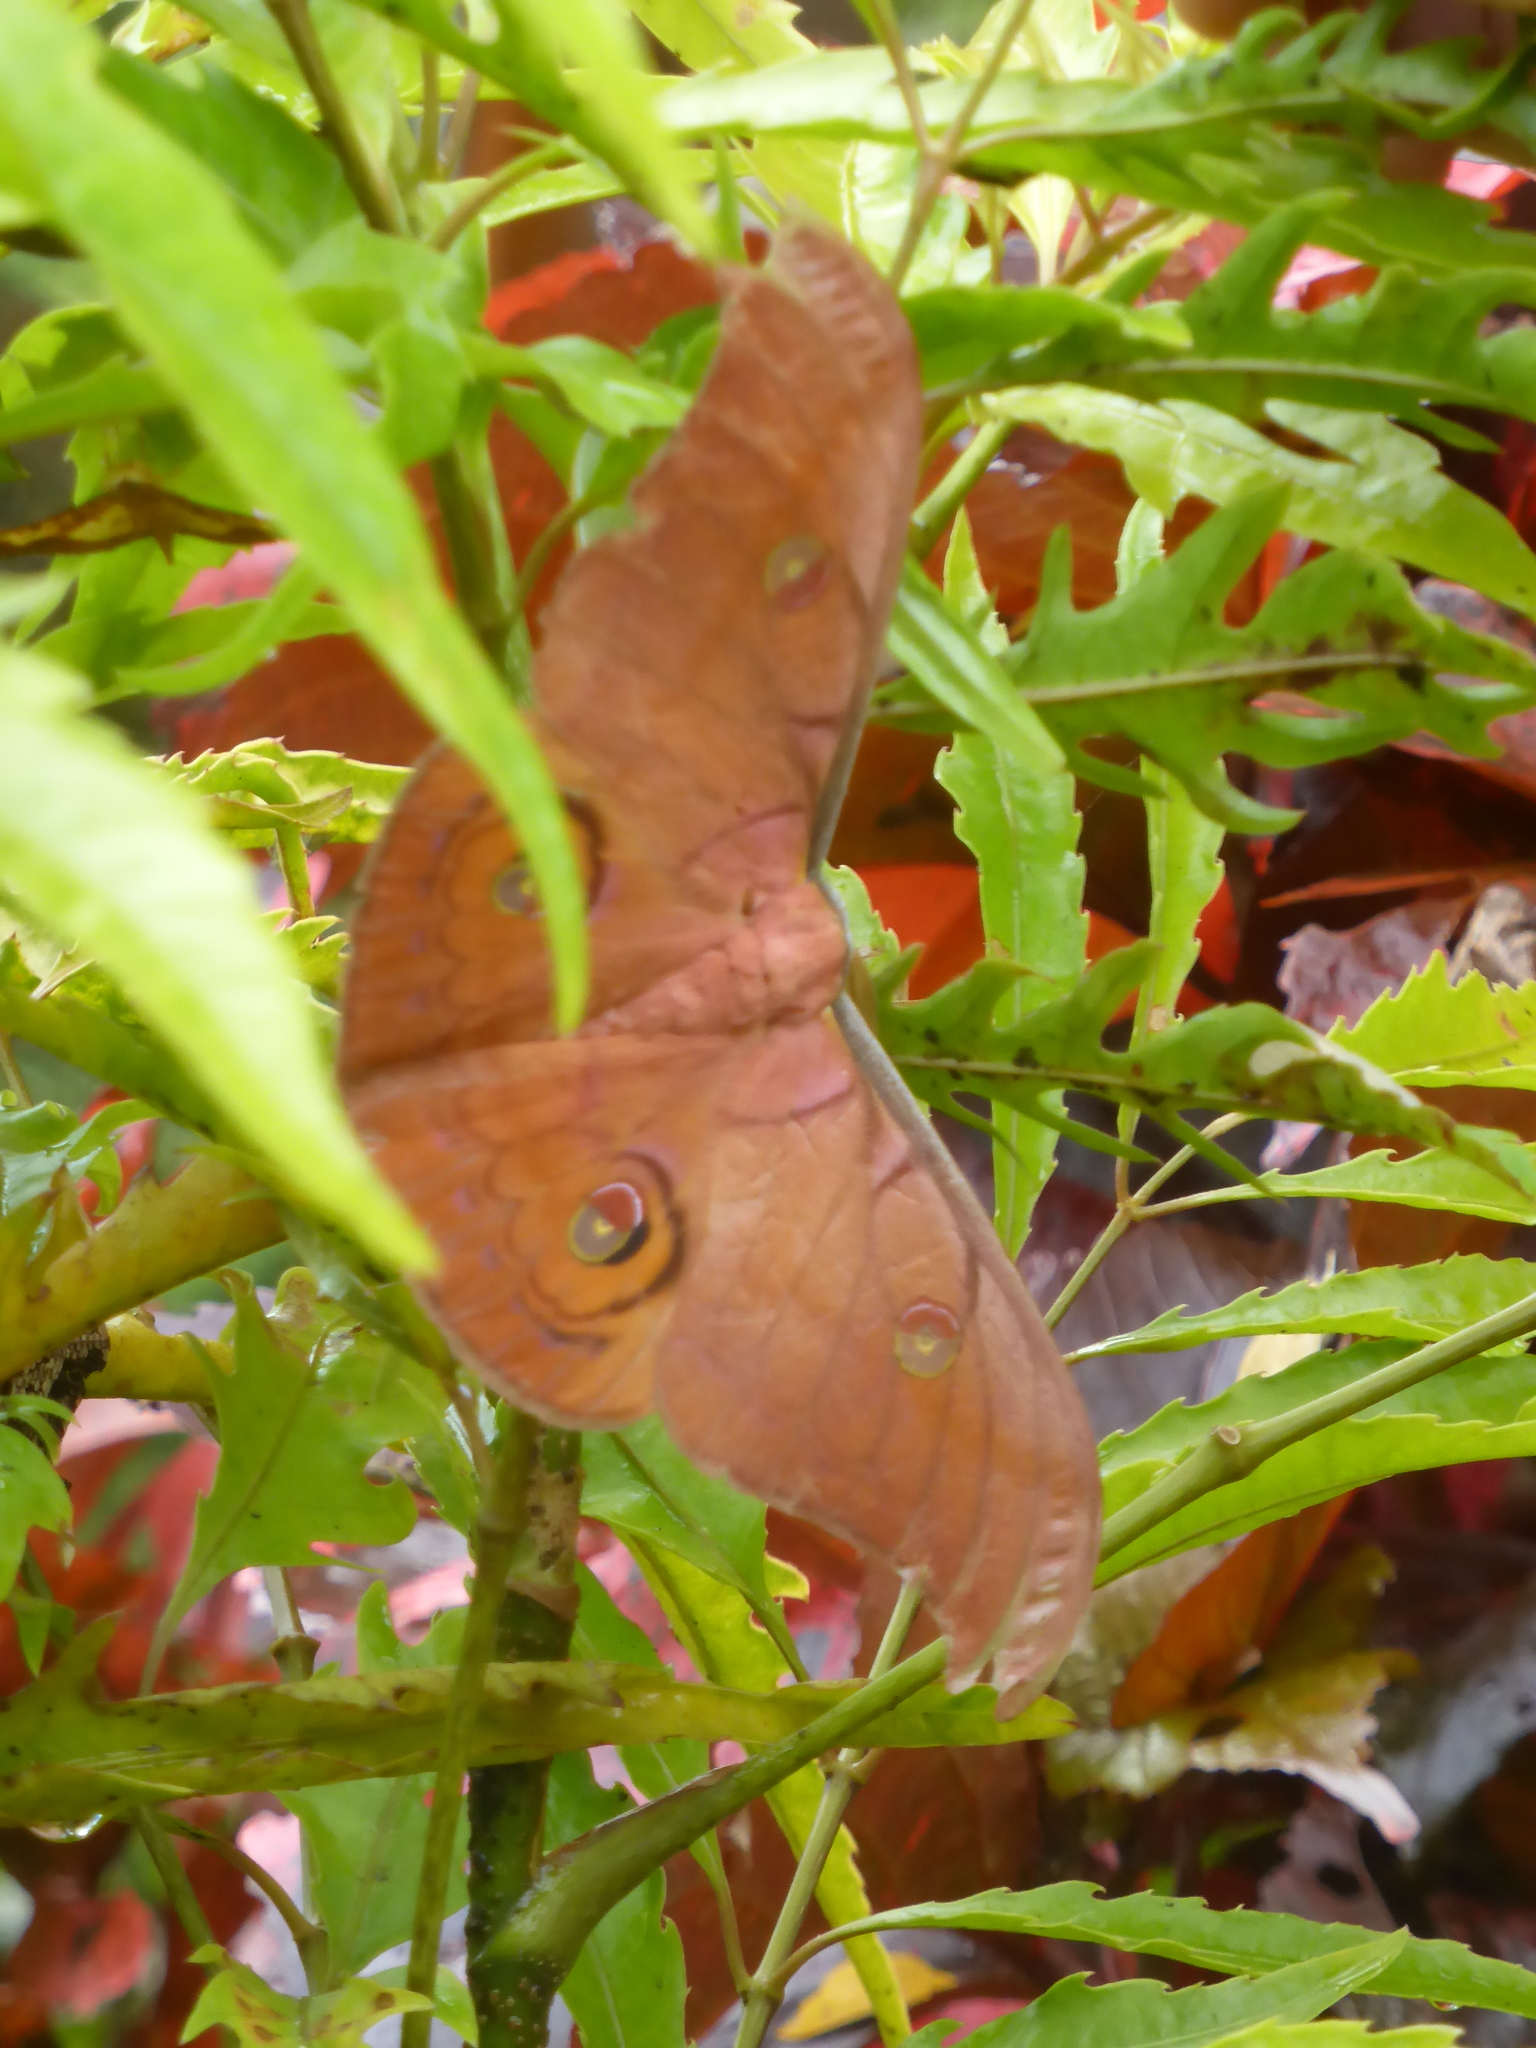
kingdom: Animalia
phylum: Arthropoda
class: Insecta
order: Lepidoptera
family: Saturniidae
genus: Antheraea
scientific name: Antheraea helferi
